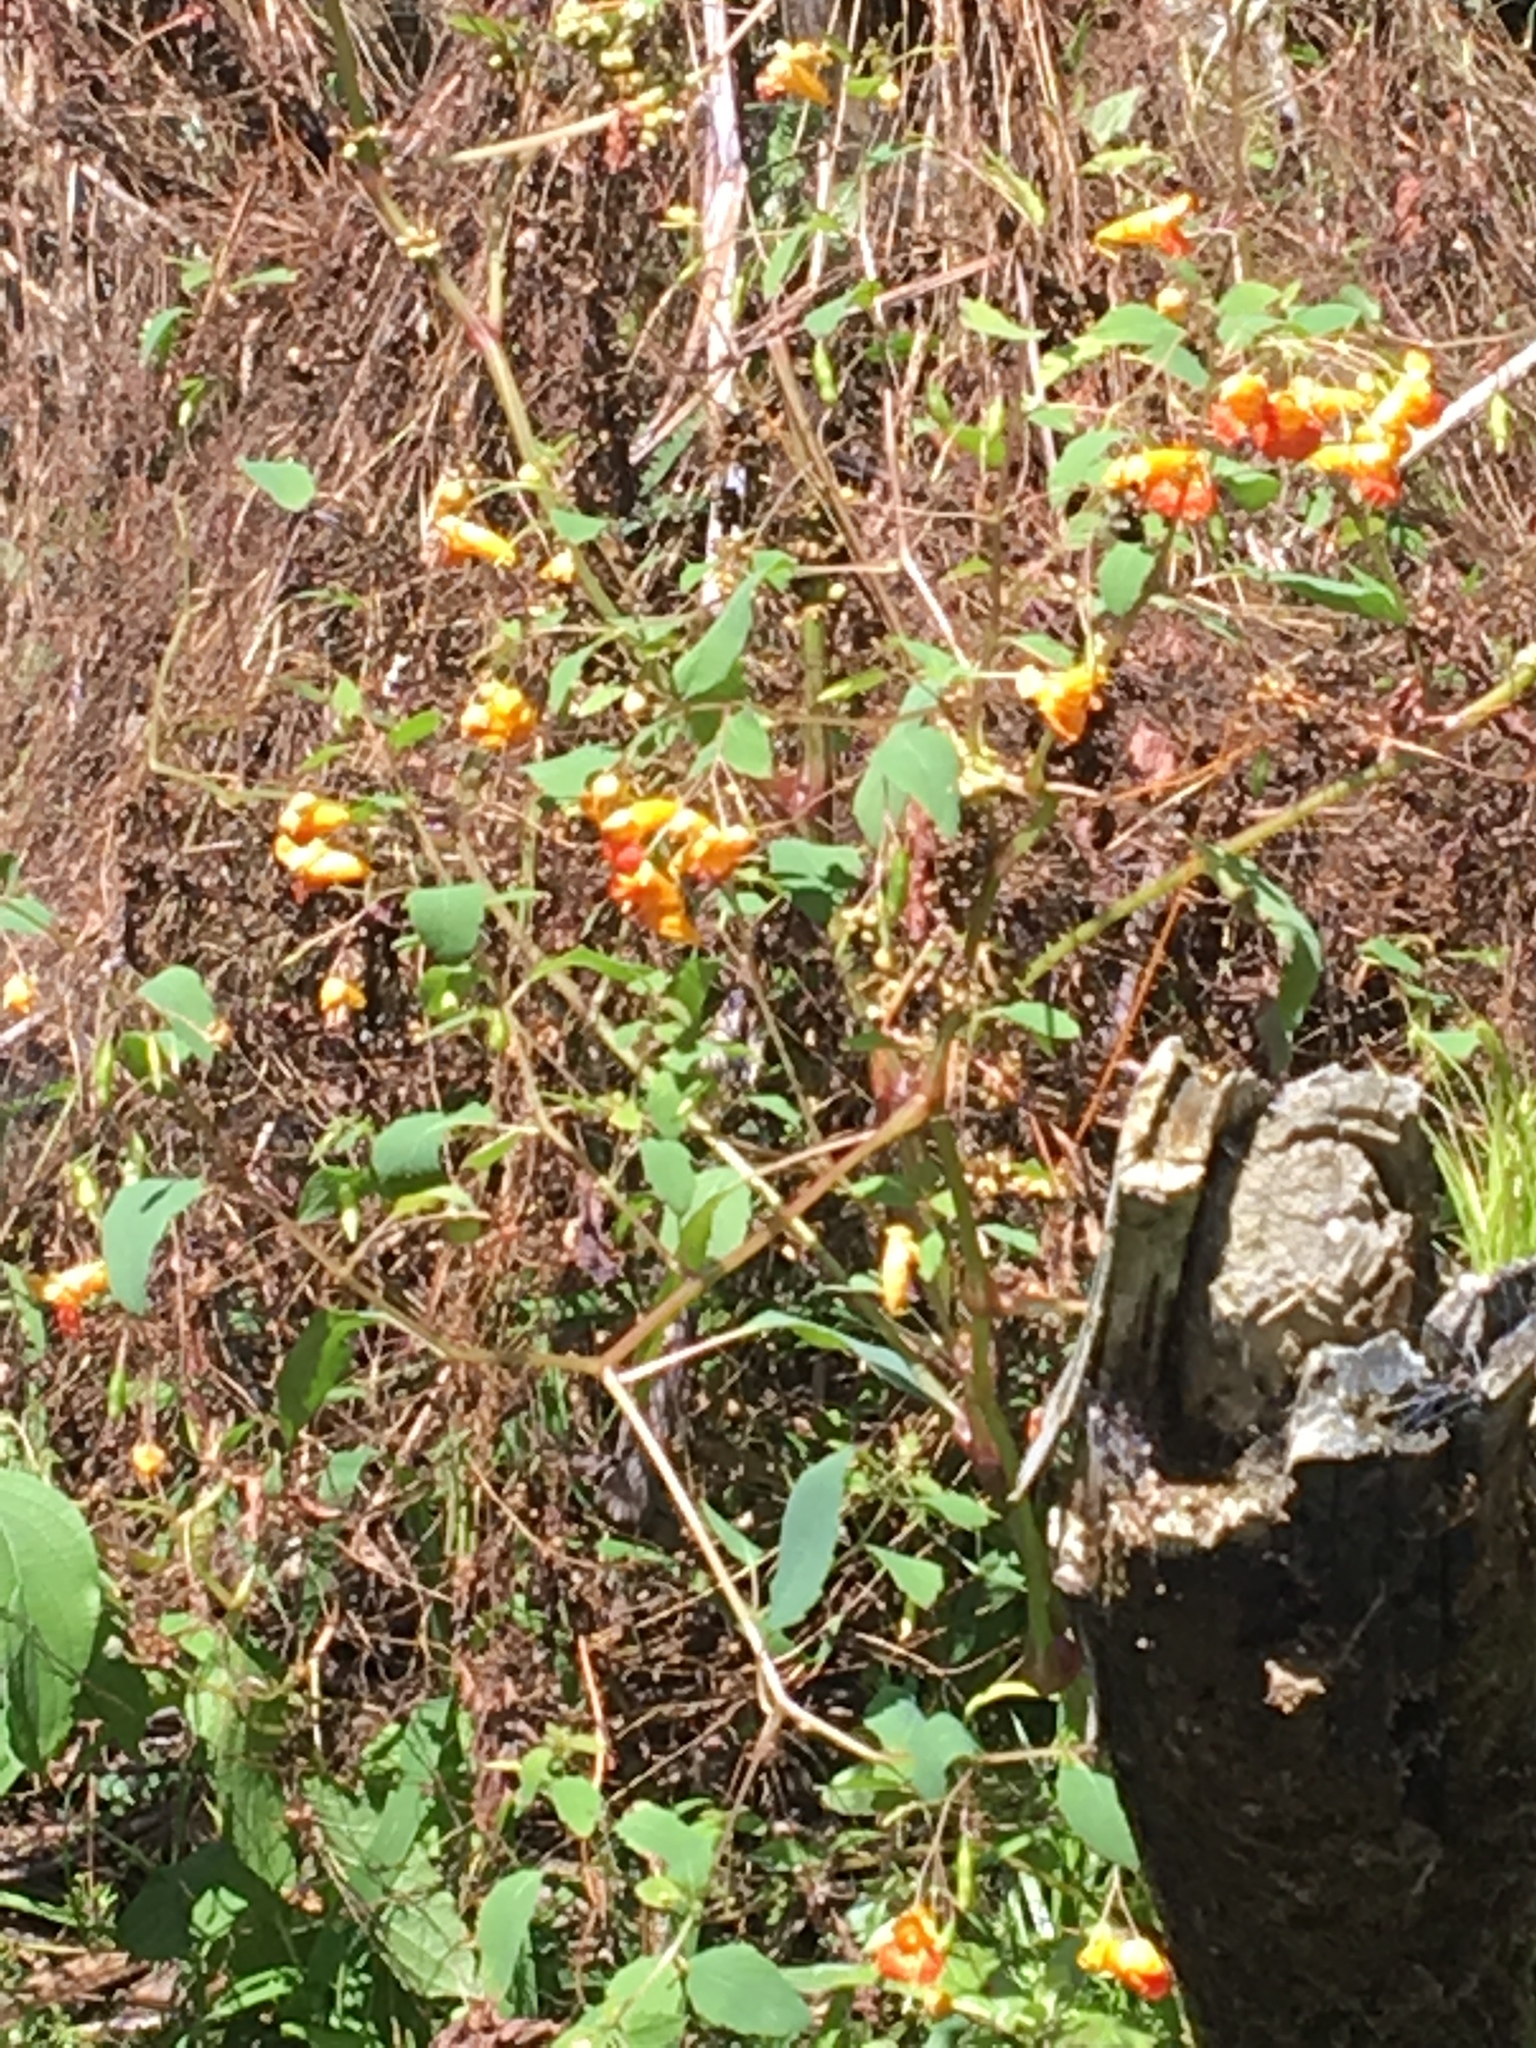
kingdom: Plantae
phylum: Tracheophyta
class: Magnoliopsida
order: Ericales
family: Balsaminaceae
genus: Impatiens
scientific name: Impatiens capensis
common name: Orange balsam
